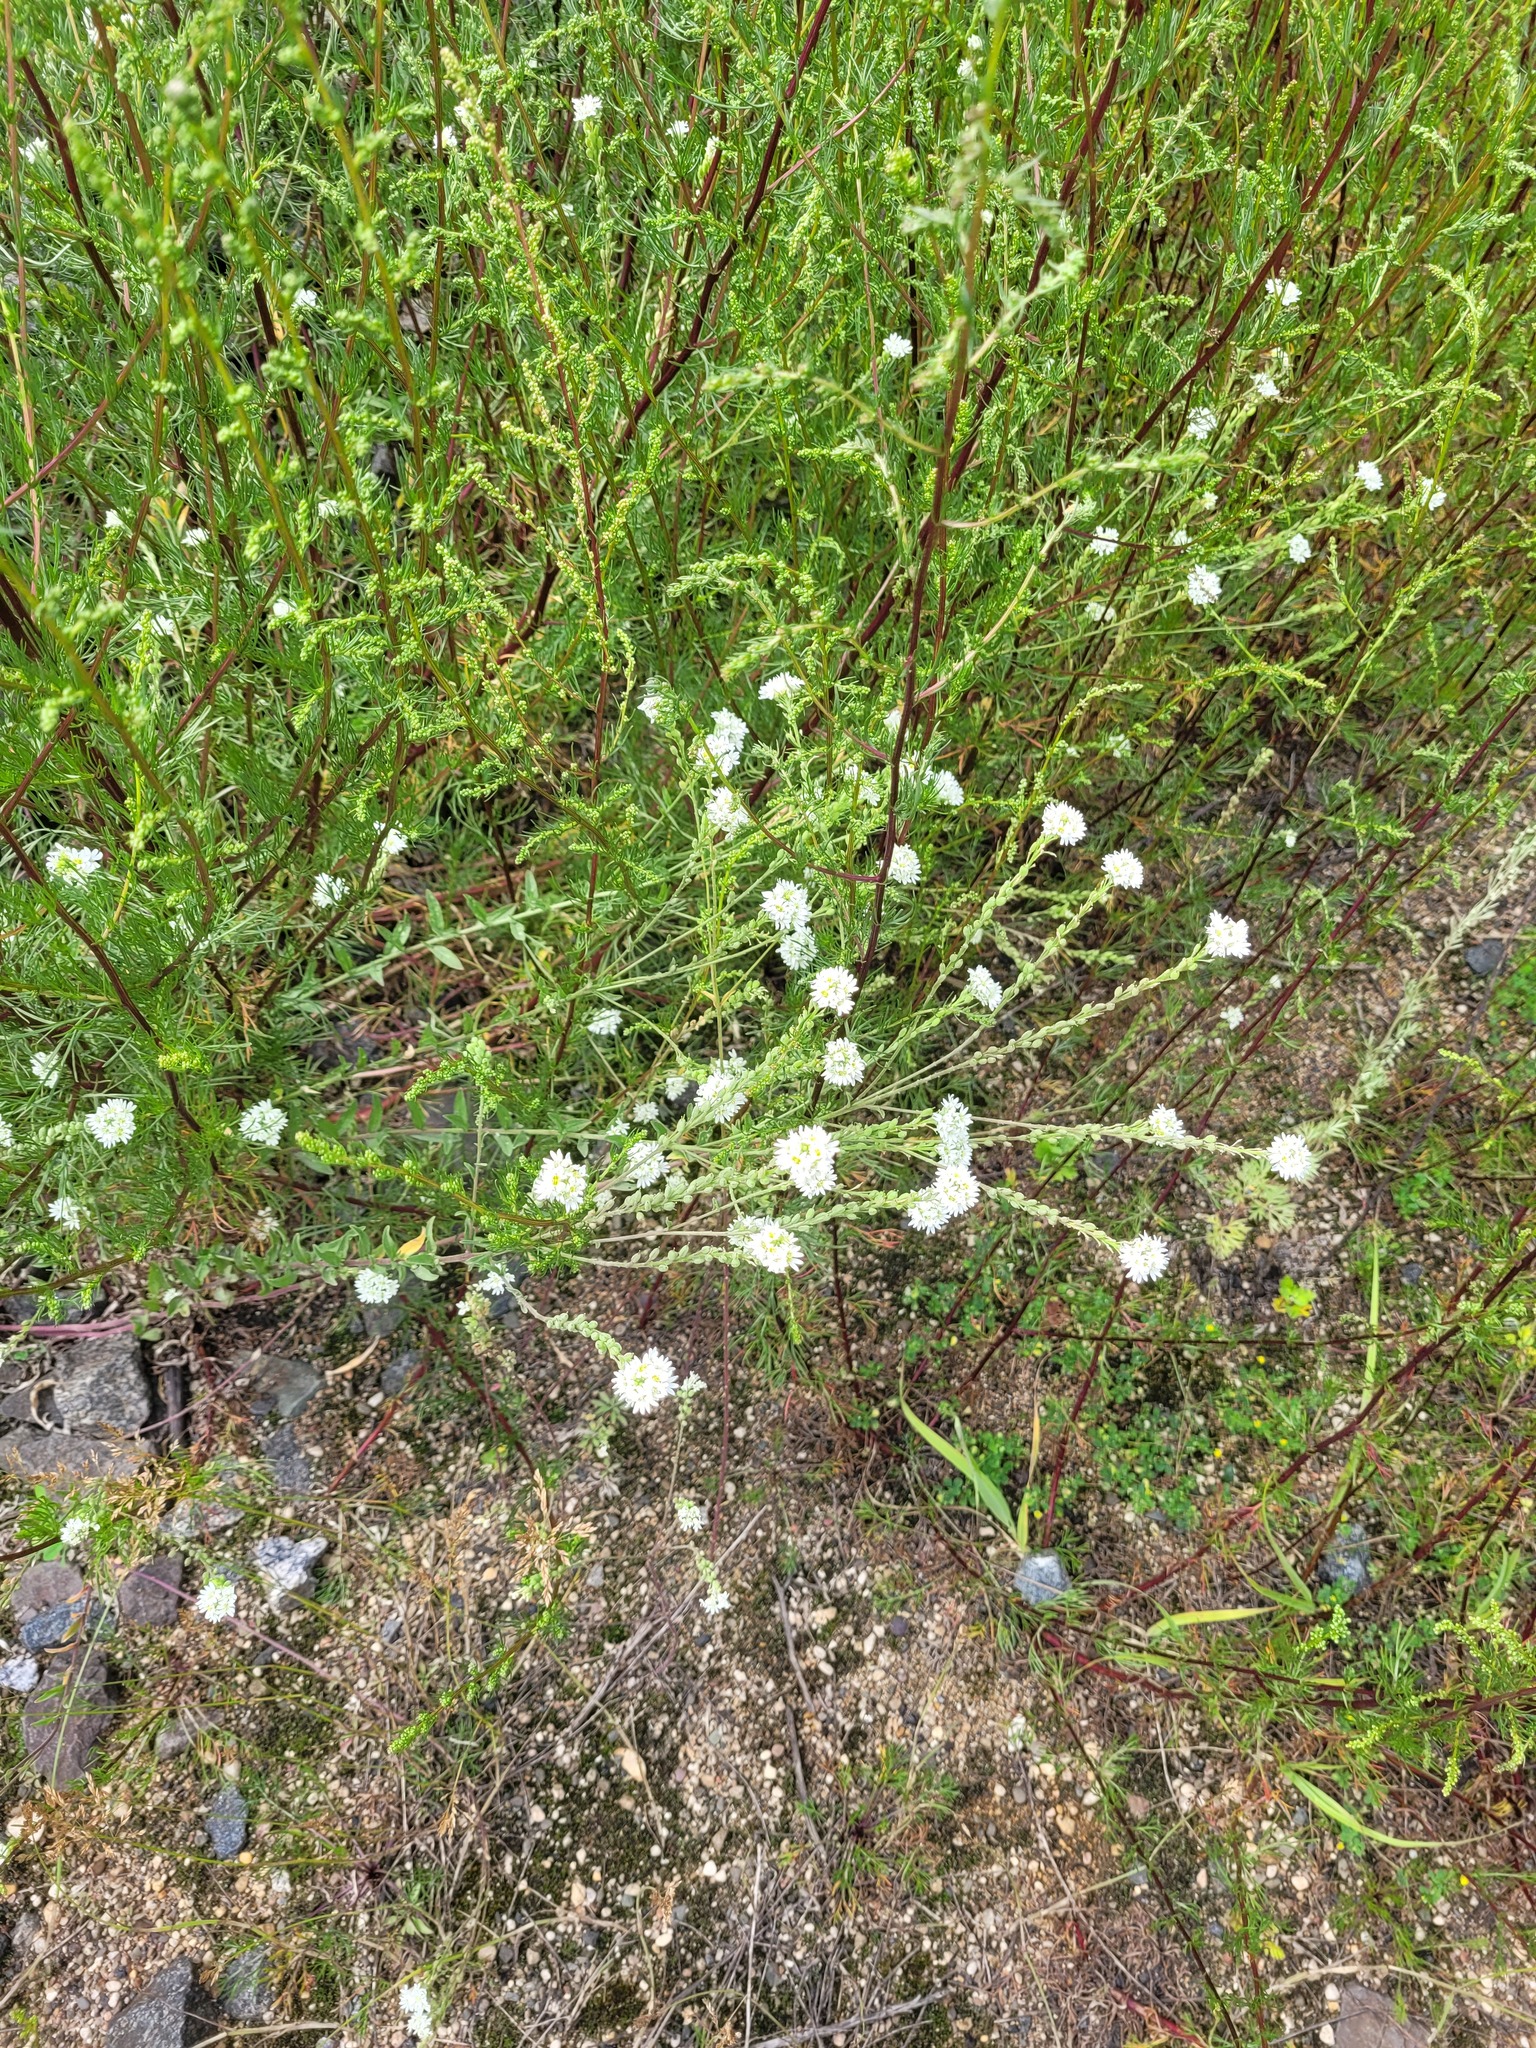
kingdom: Plantae
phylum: Tracheophyta
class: Magnoliopsida
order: Brassicales
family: Brassicaceae
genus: Berteroa
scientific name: Berteroa incana
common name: Hoary alison
